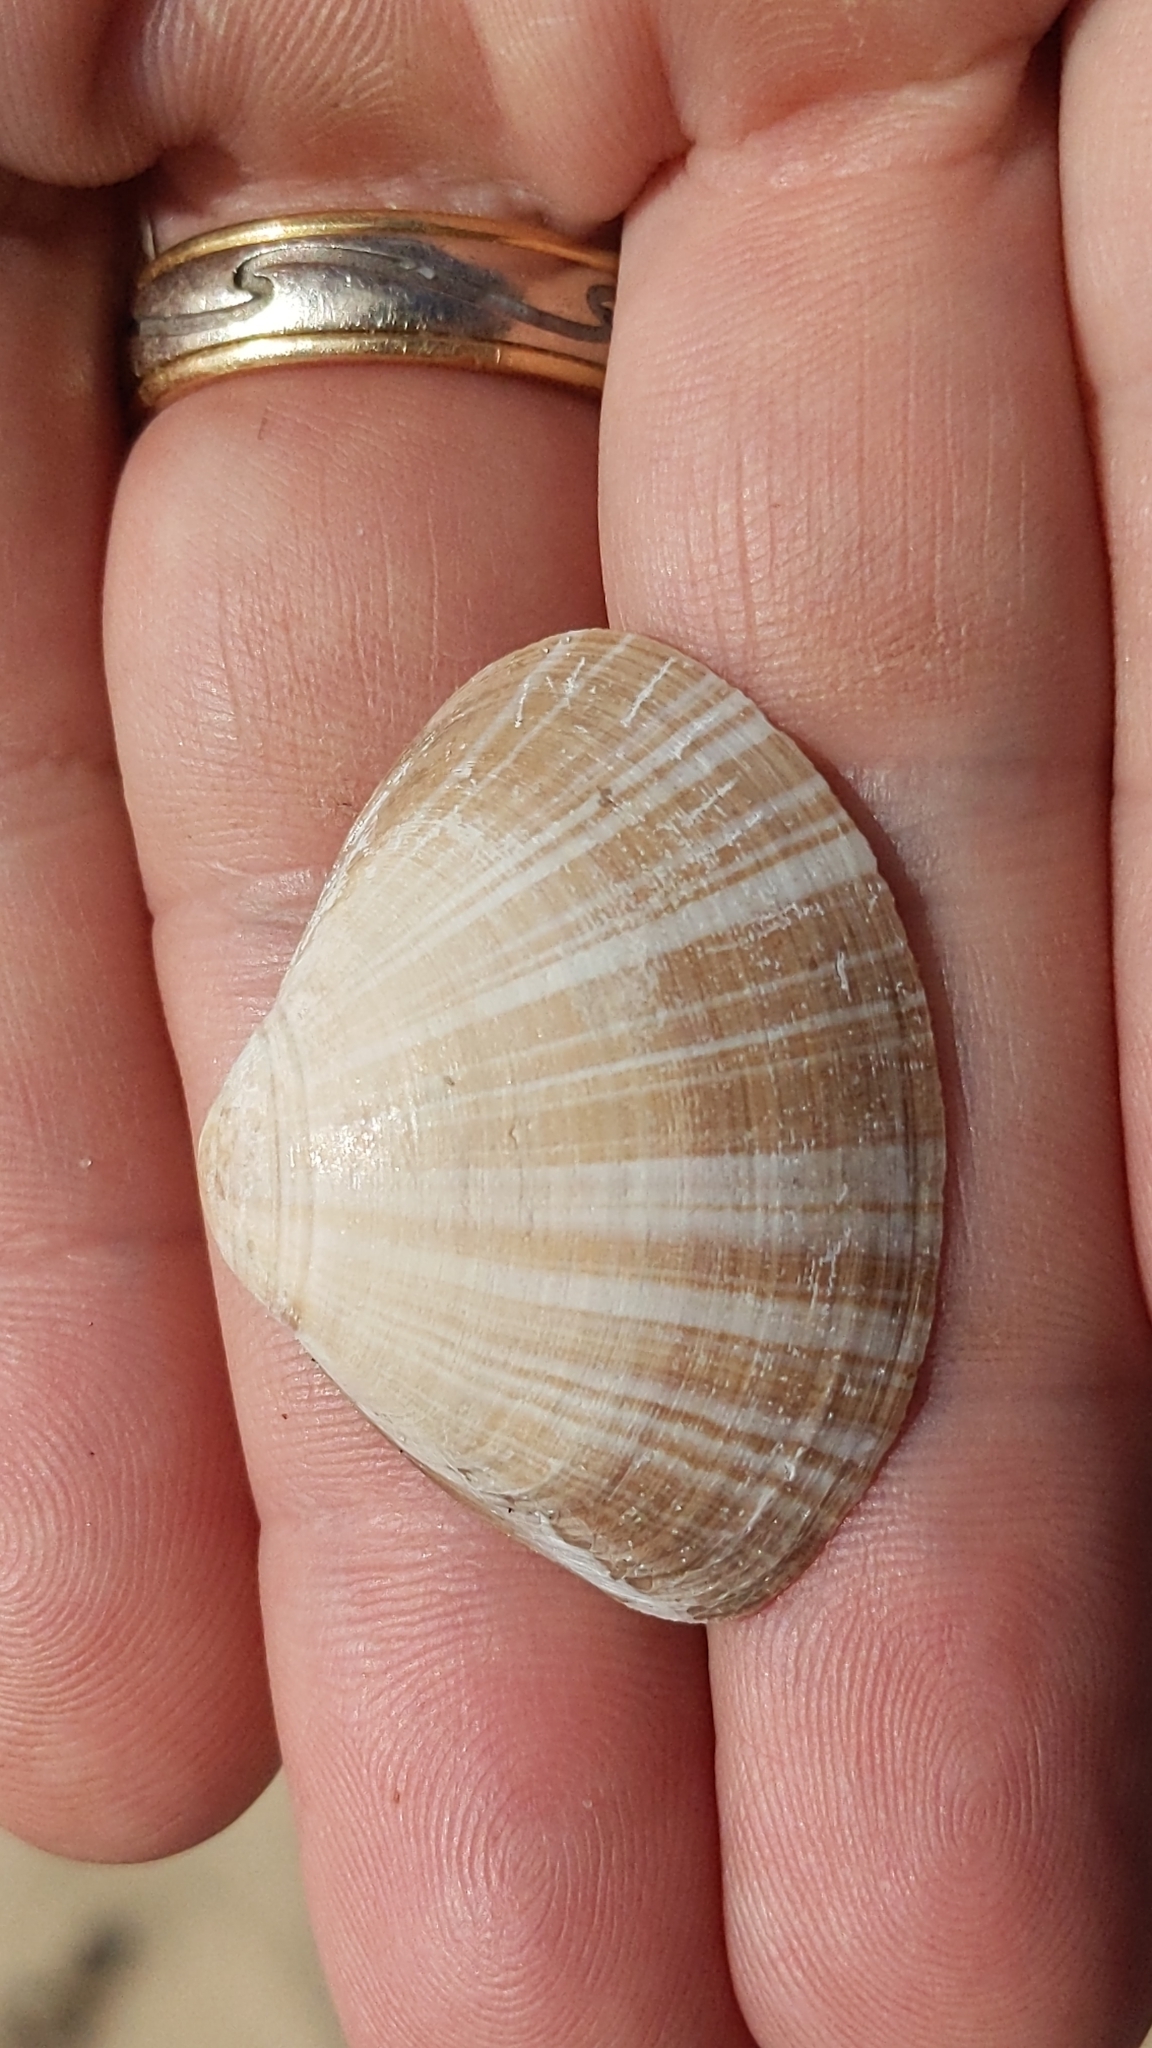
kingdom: Animalia
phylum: Mollusca
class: Bivalvia
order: Venerida
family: Mactridae
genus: Mactra
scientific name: Mactra stultorum
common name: Rayed trough shell
